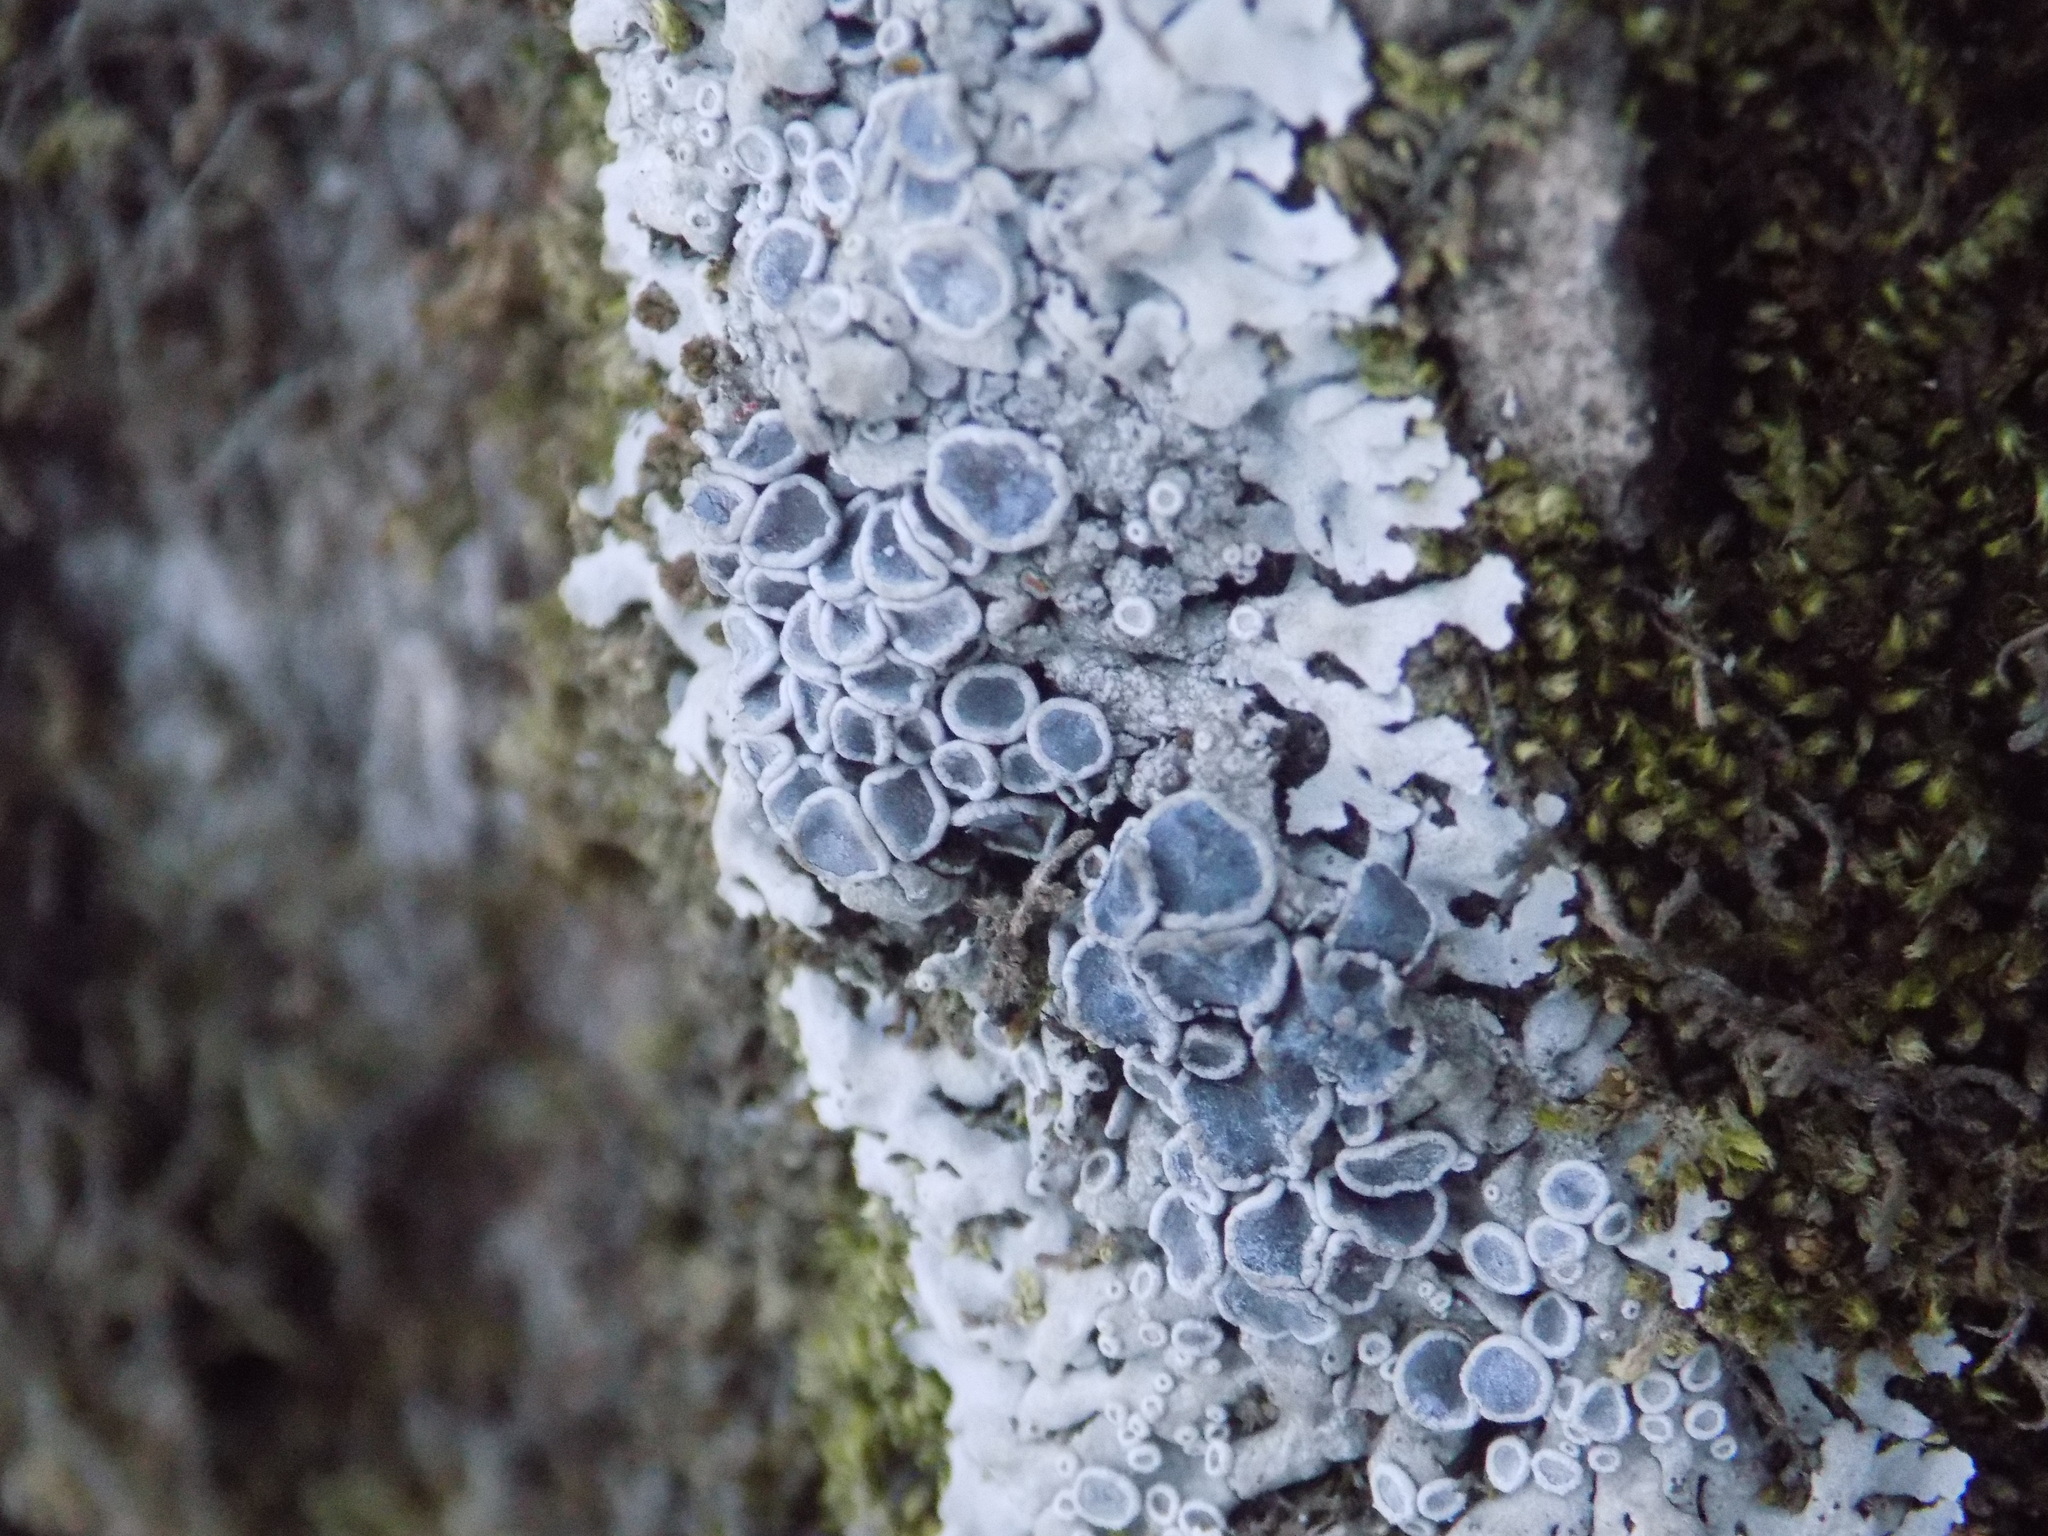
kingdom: Fungi
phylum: Ascomycota
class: Lecanoromycetes
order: Caliciales
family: Physciaceae
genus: Physcia
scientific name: Physcia aipolia
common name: Hoary rosette lichen
